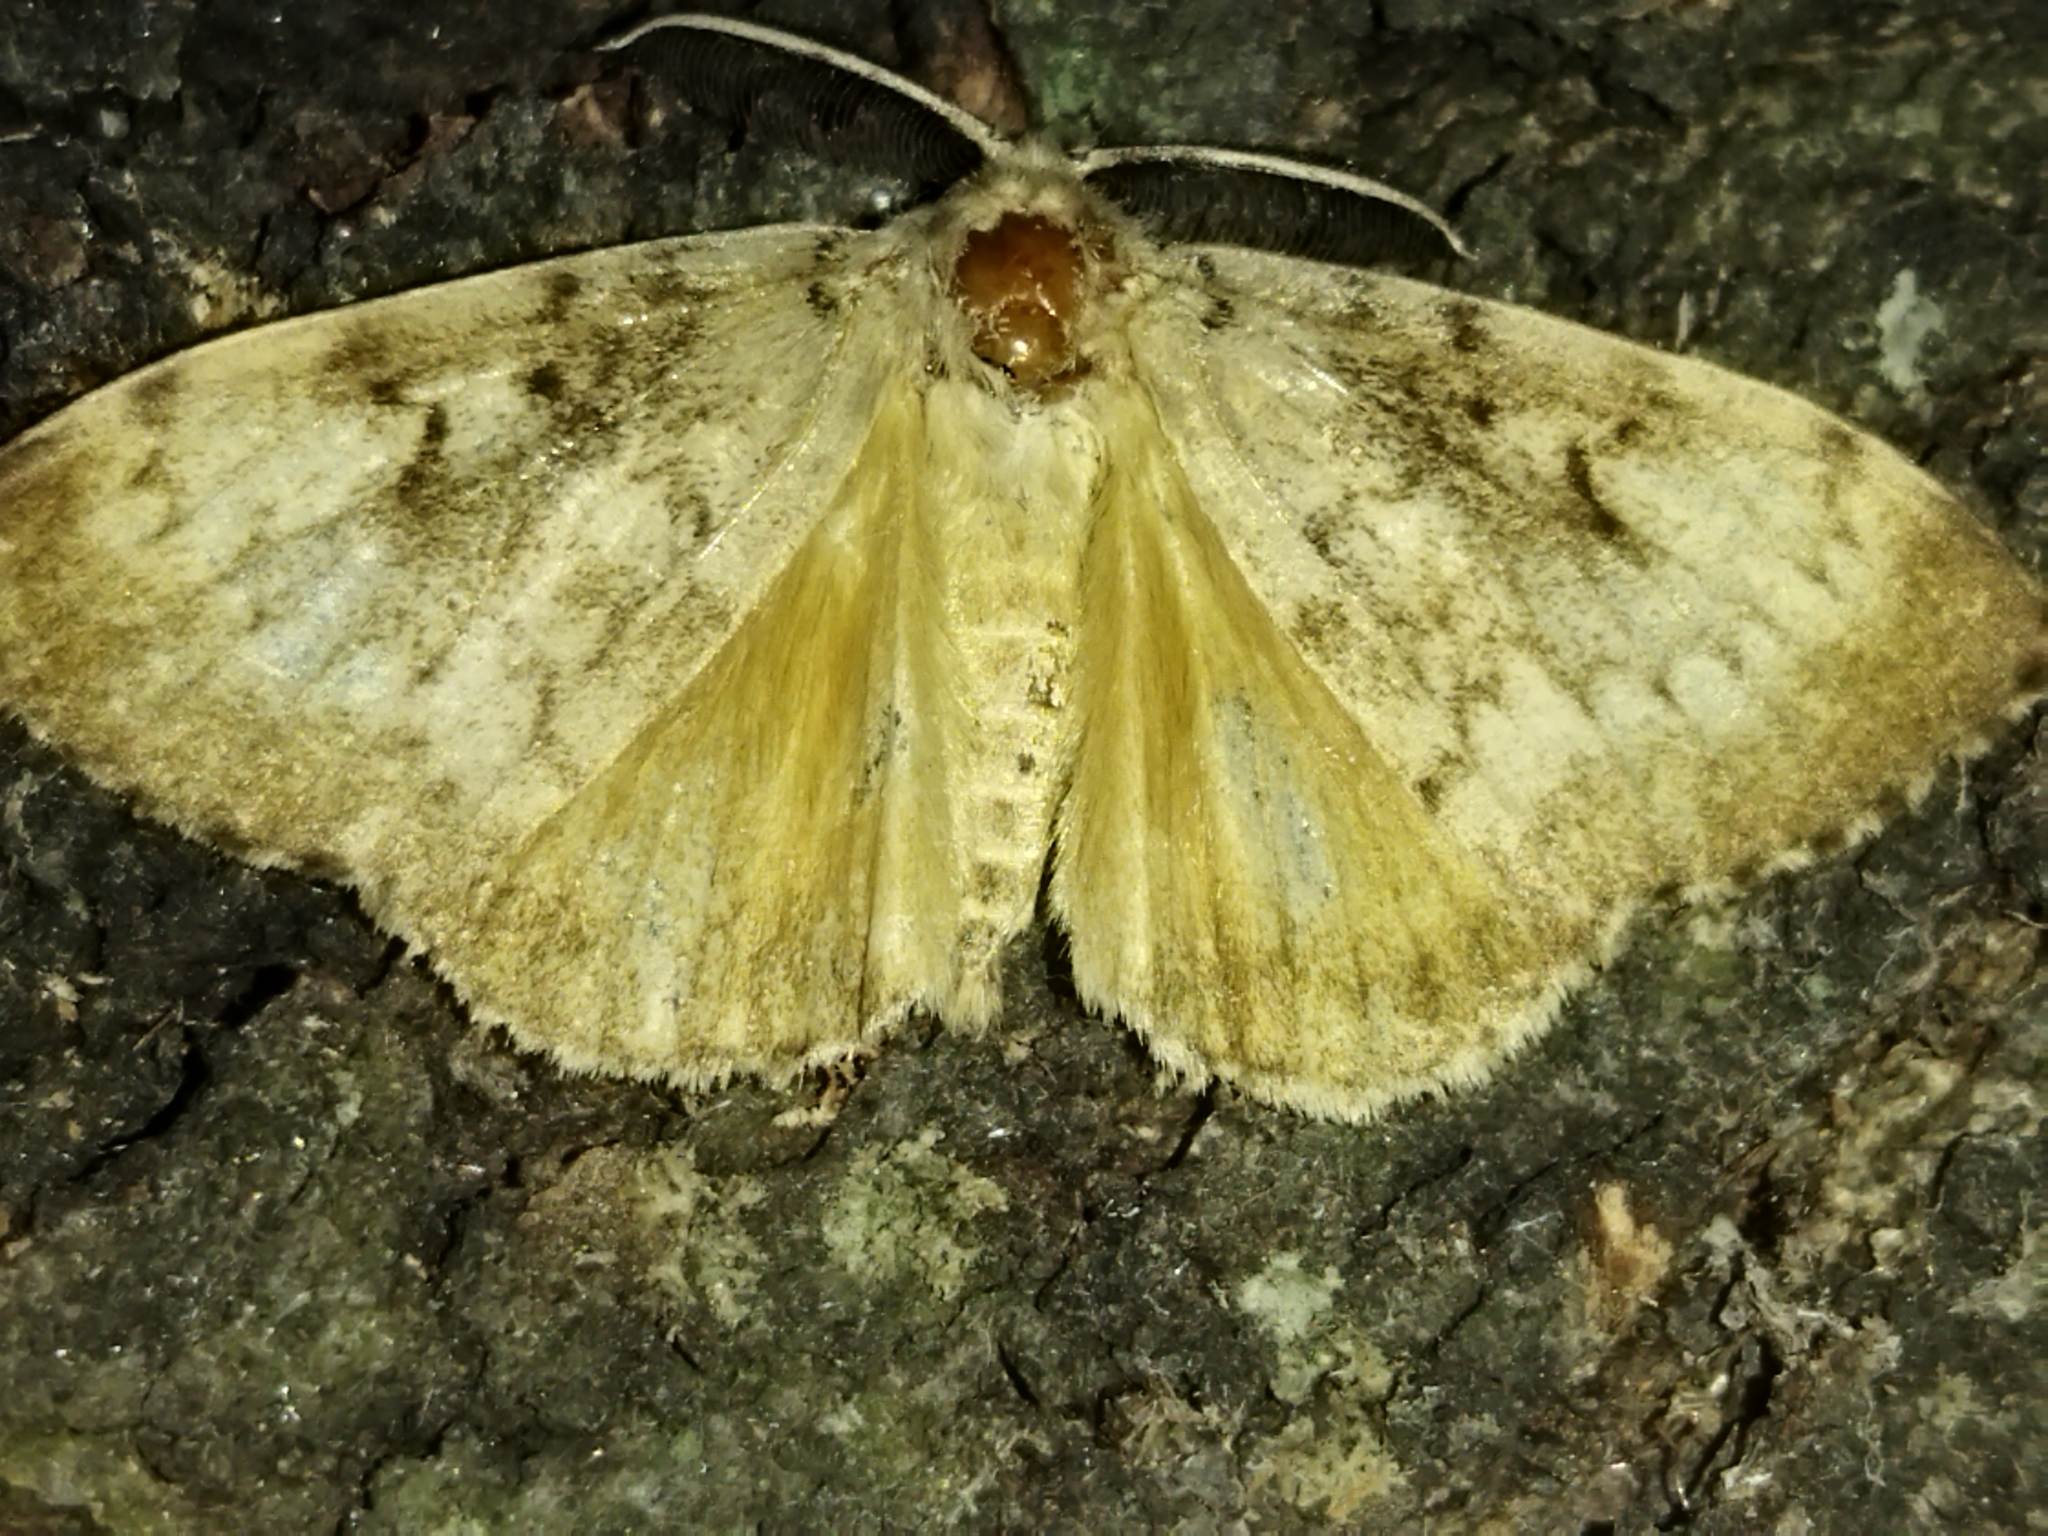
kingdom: Animalia
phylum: Arthropoda
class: Insecta
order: Lepidoptera
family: Erebidae
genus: Lymantria
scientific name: Lymantria dispar
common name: Gypsy moth
